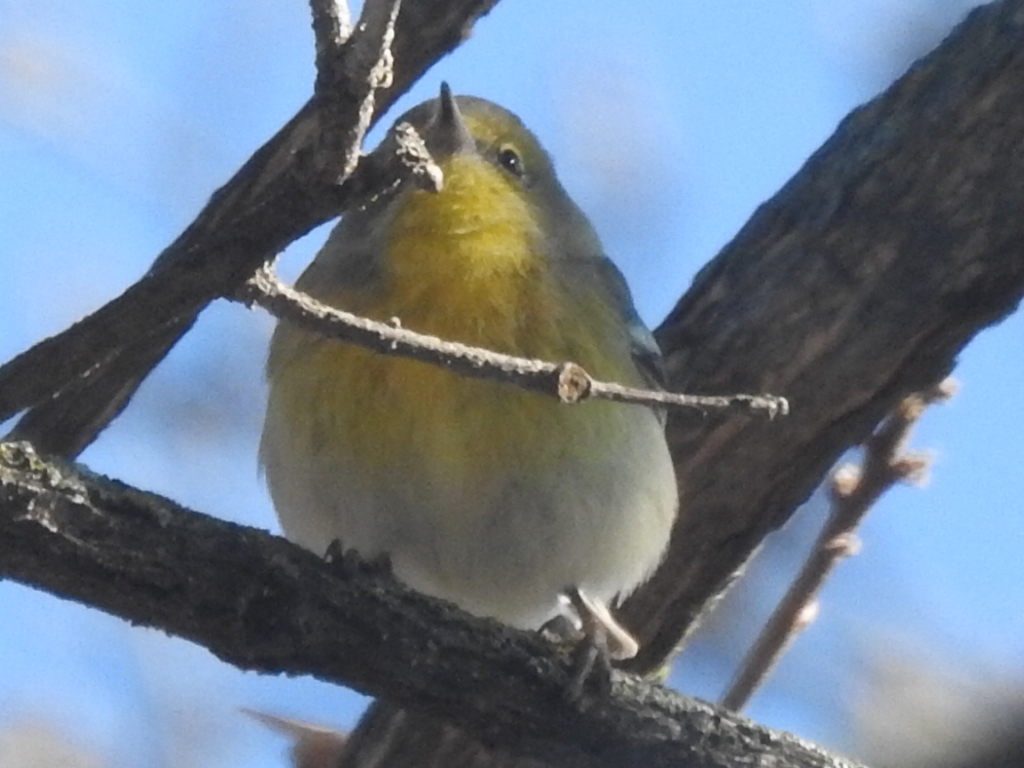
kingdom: Animalia
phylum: Chordata
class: Aves
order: Passeriformes
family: Parulidae
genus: Setophaga
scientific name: Setophaga pinus
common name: Pine warbler
